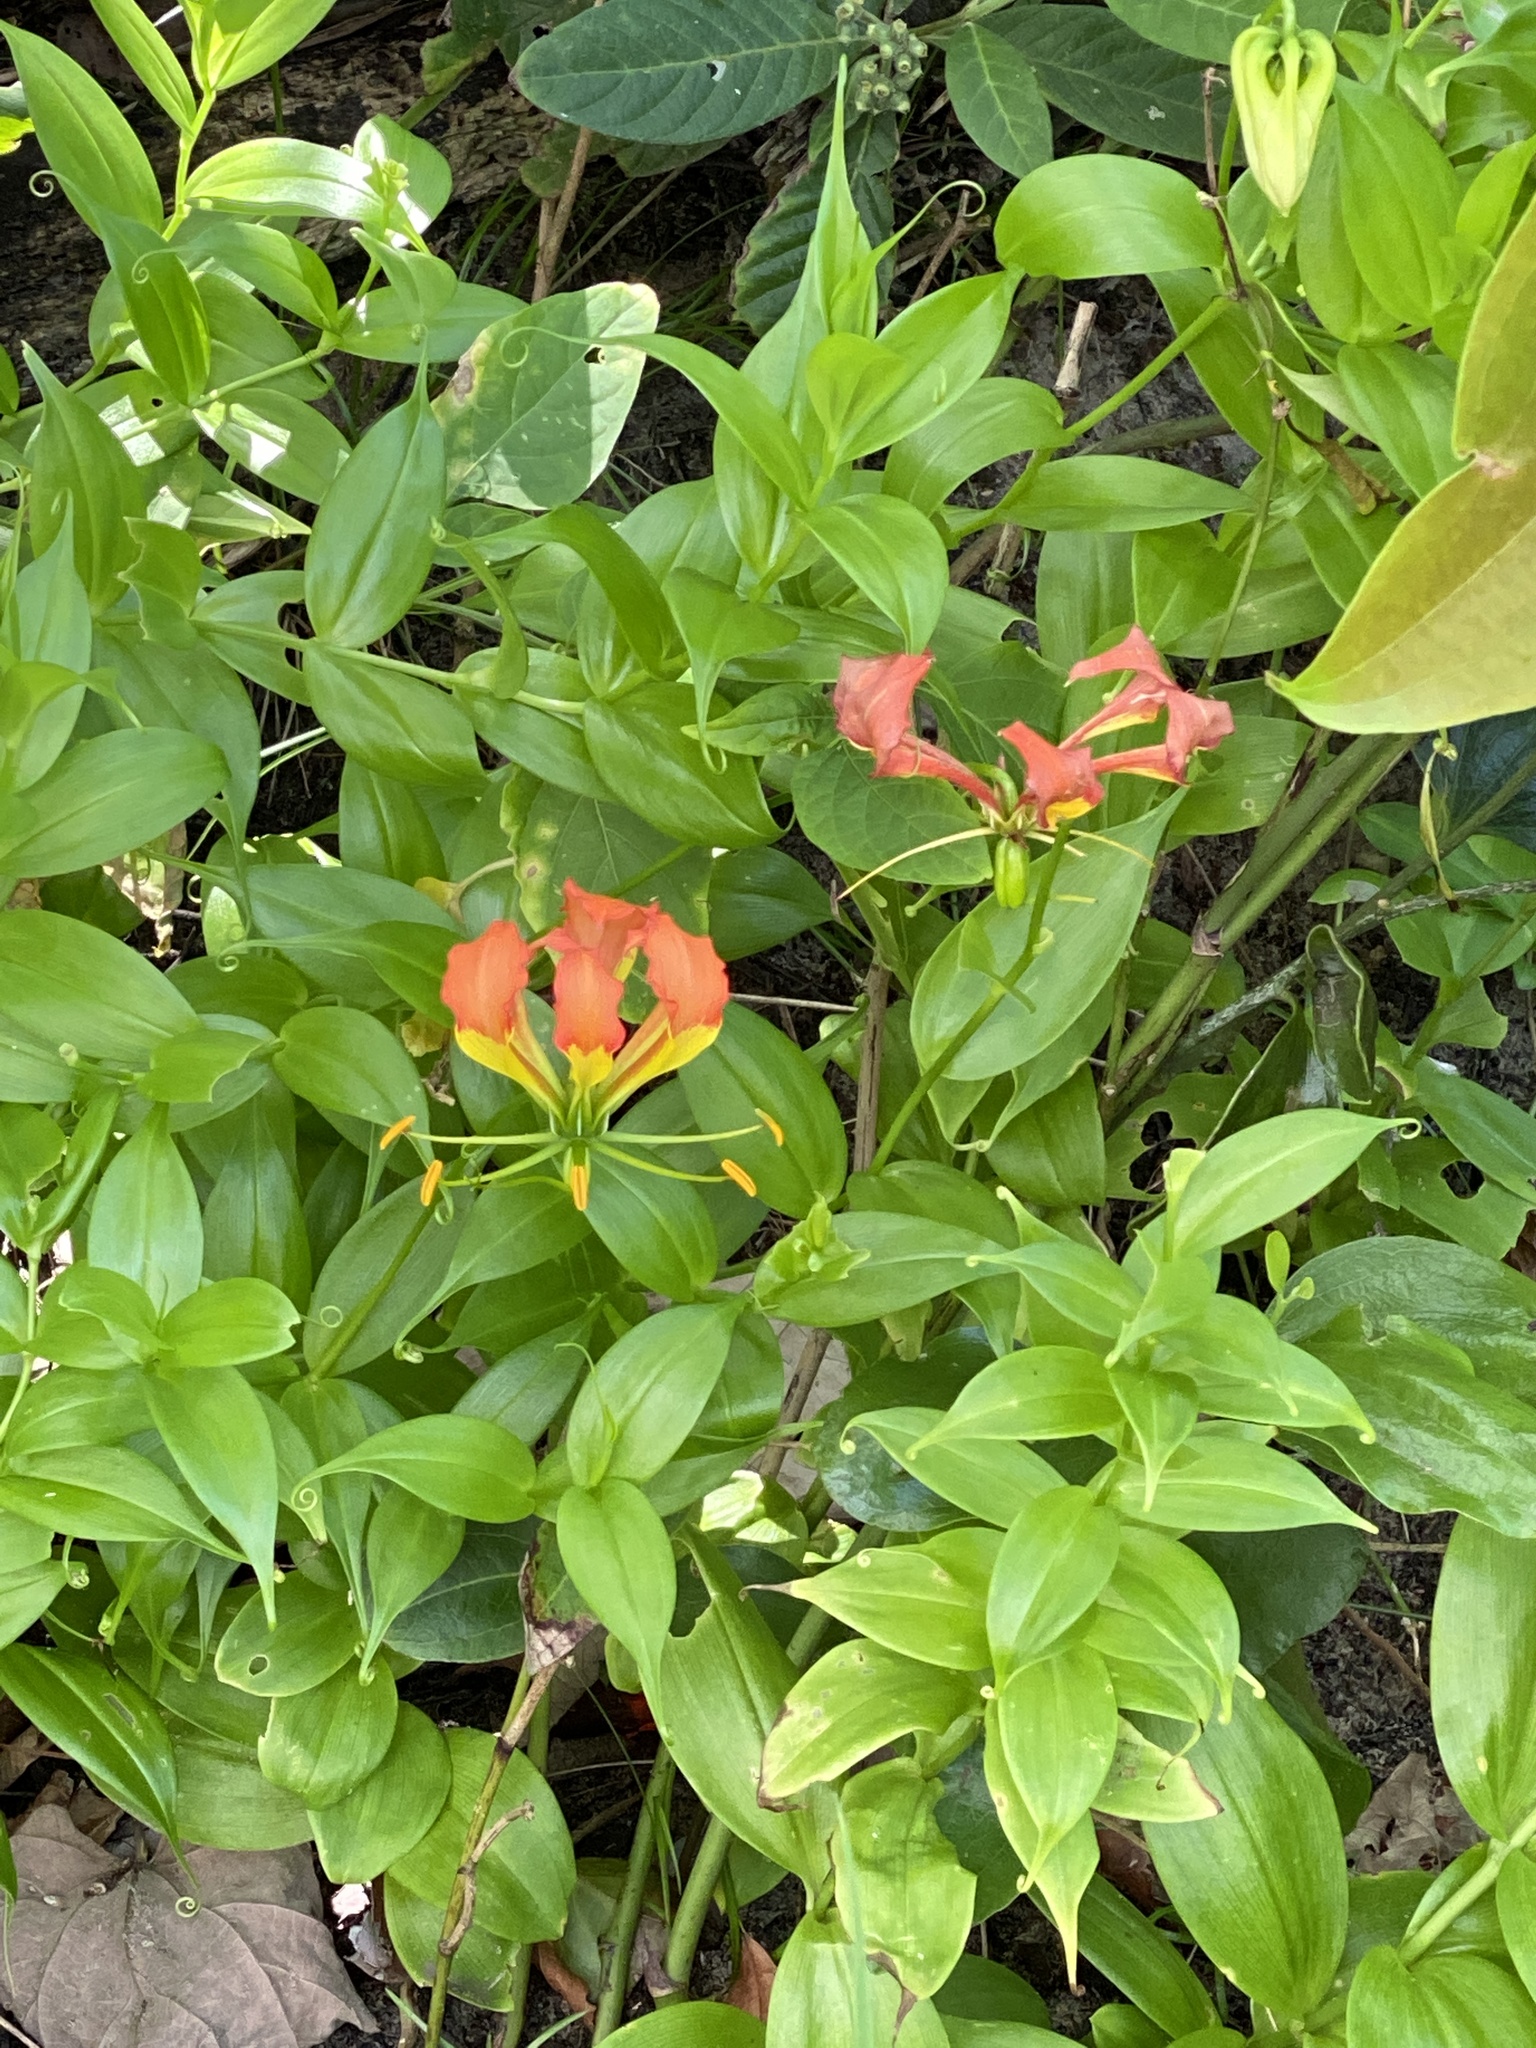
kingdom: Plantae
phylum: Tracheophyta
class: Liliopsida
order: Liliales
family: Colchicaceae
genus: Gloriosa
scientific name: Gloriosa superba
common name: Flame lily
